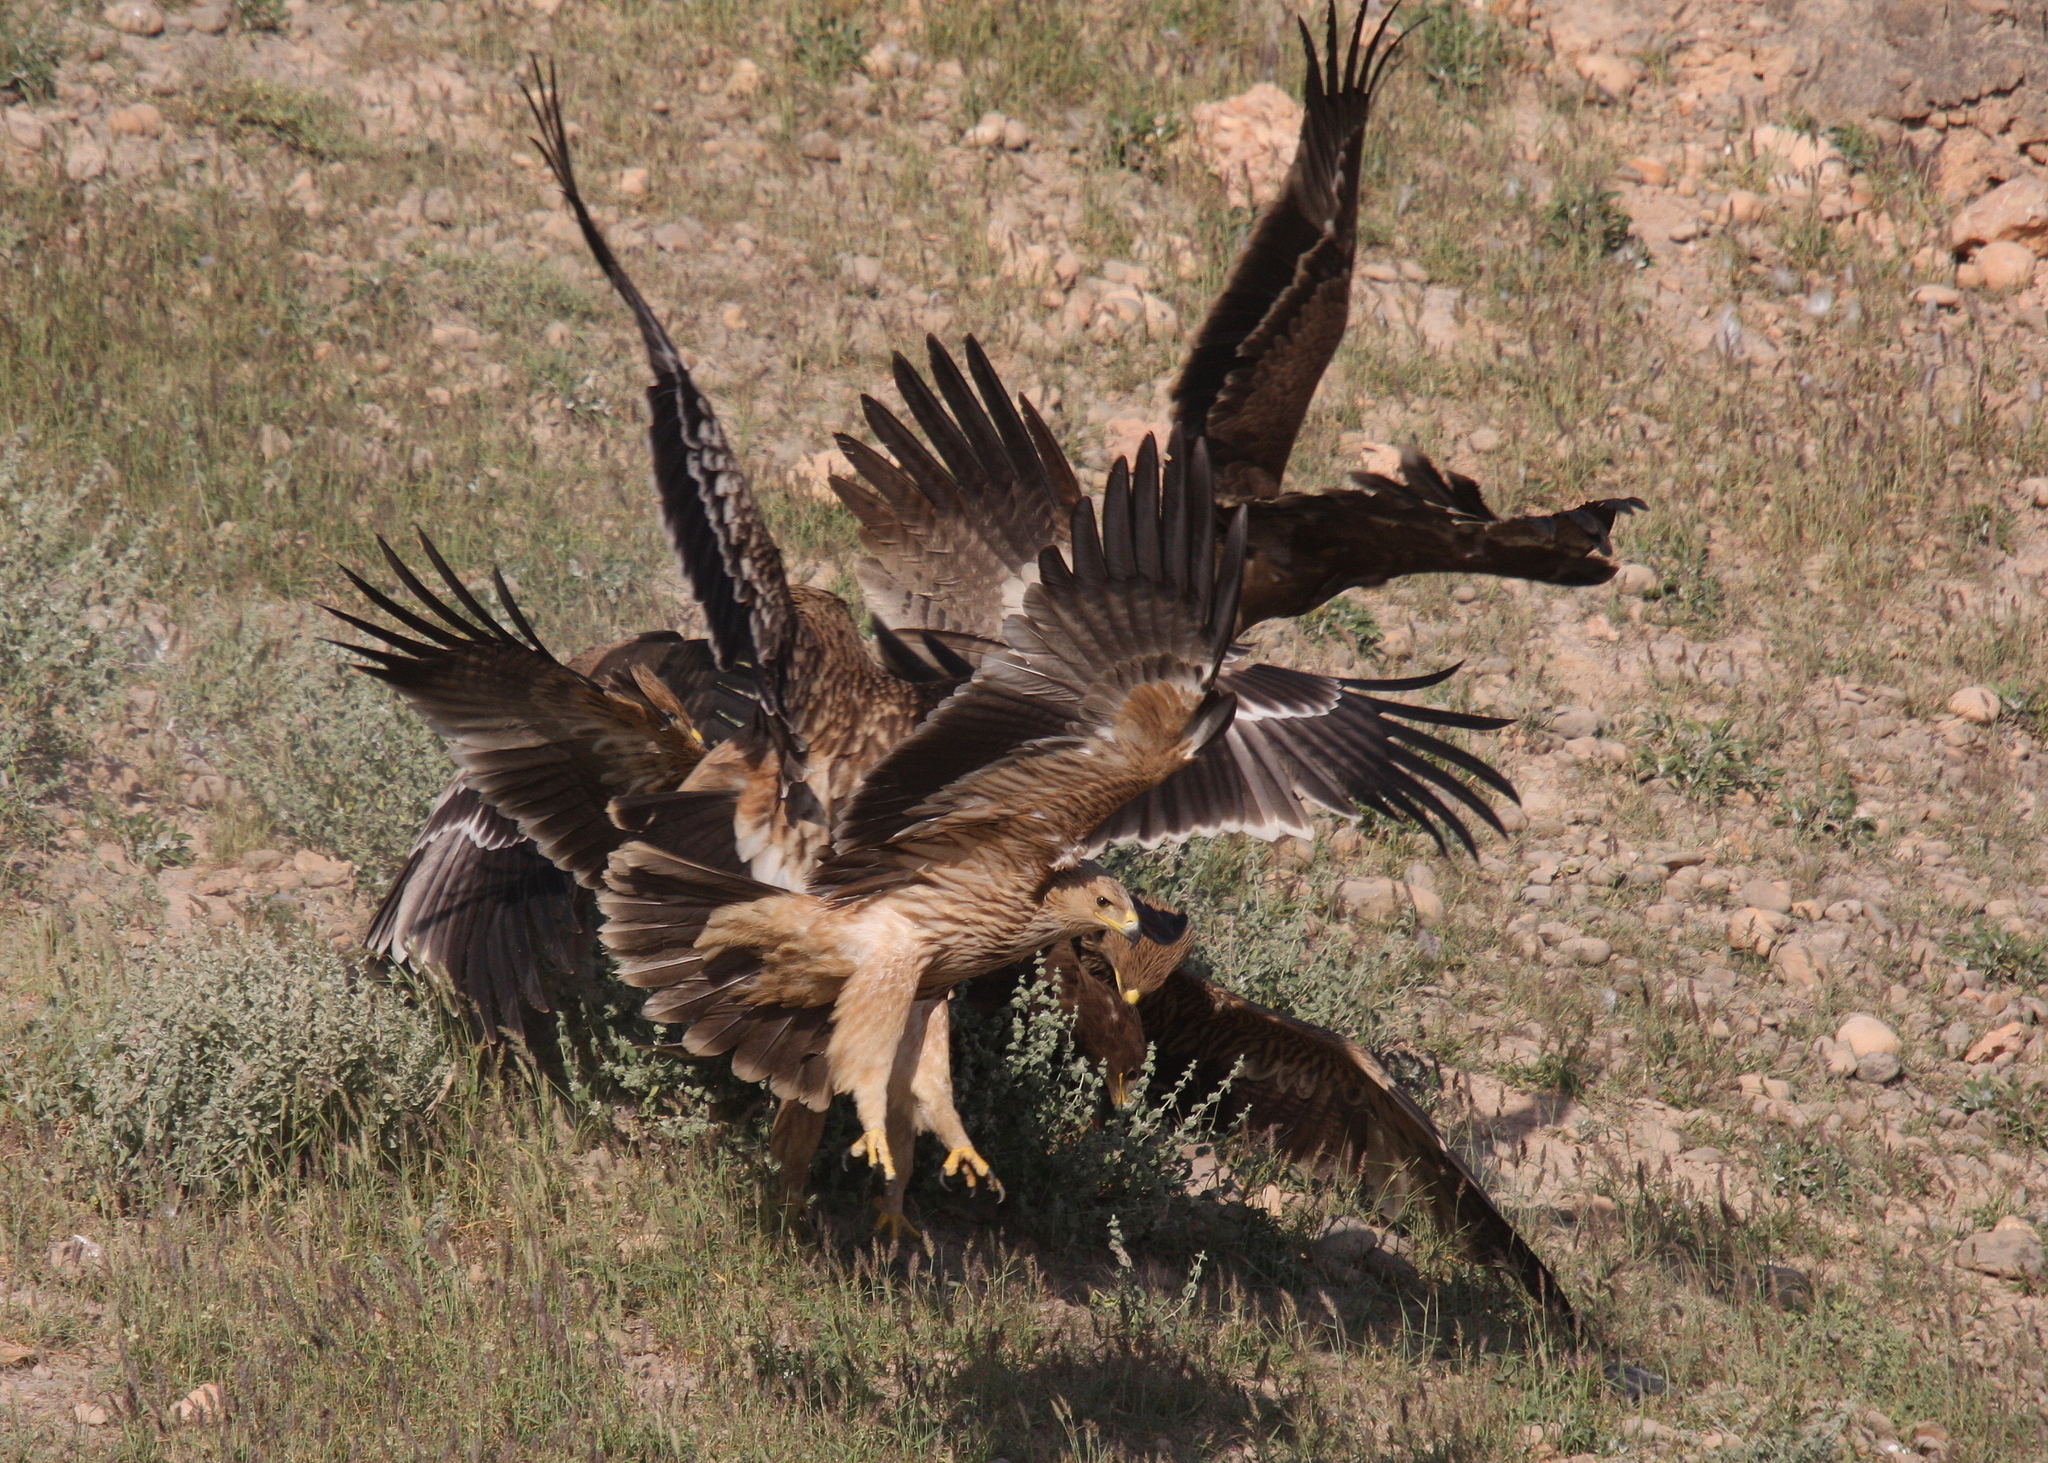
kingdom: Animalia
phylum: Chordata
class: Aves
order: Accipitriformes
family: Accipitridae
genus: Aquila
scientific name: Aquila heliaca
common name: Eastern imperial eagle
